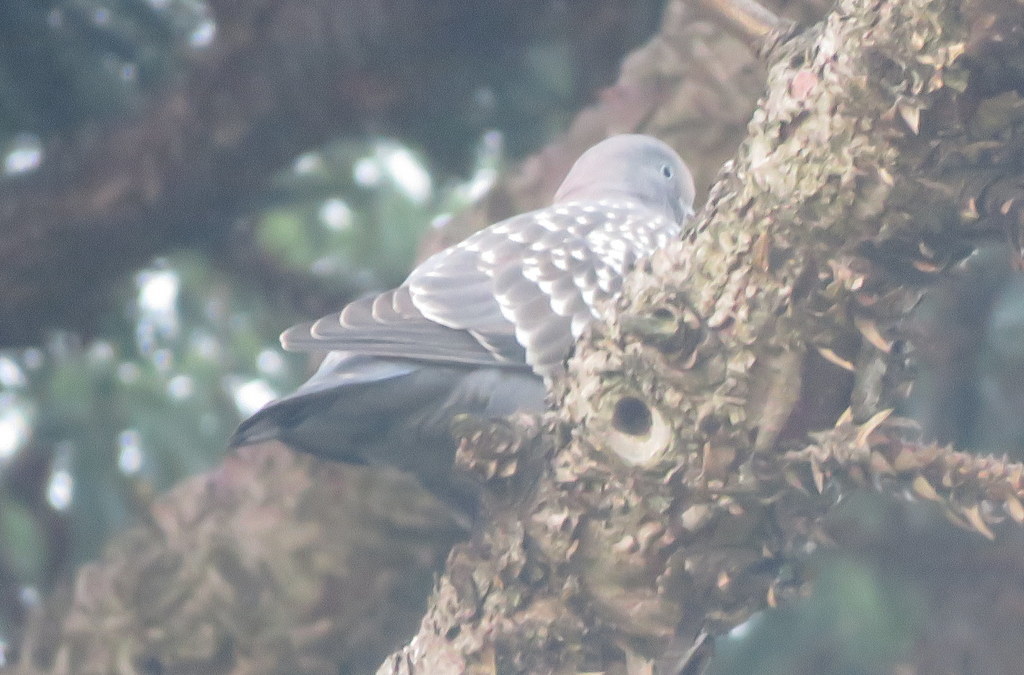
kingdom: Animalia
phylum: Chordata
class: Aves
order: Columbiformes
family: Columbidae
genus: Patagioenas
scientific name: Patagioenas maculosa
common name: Spot-winged pigeon
